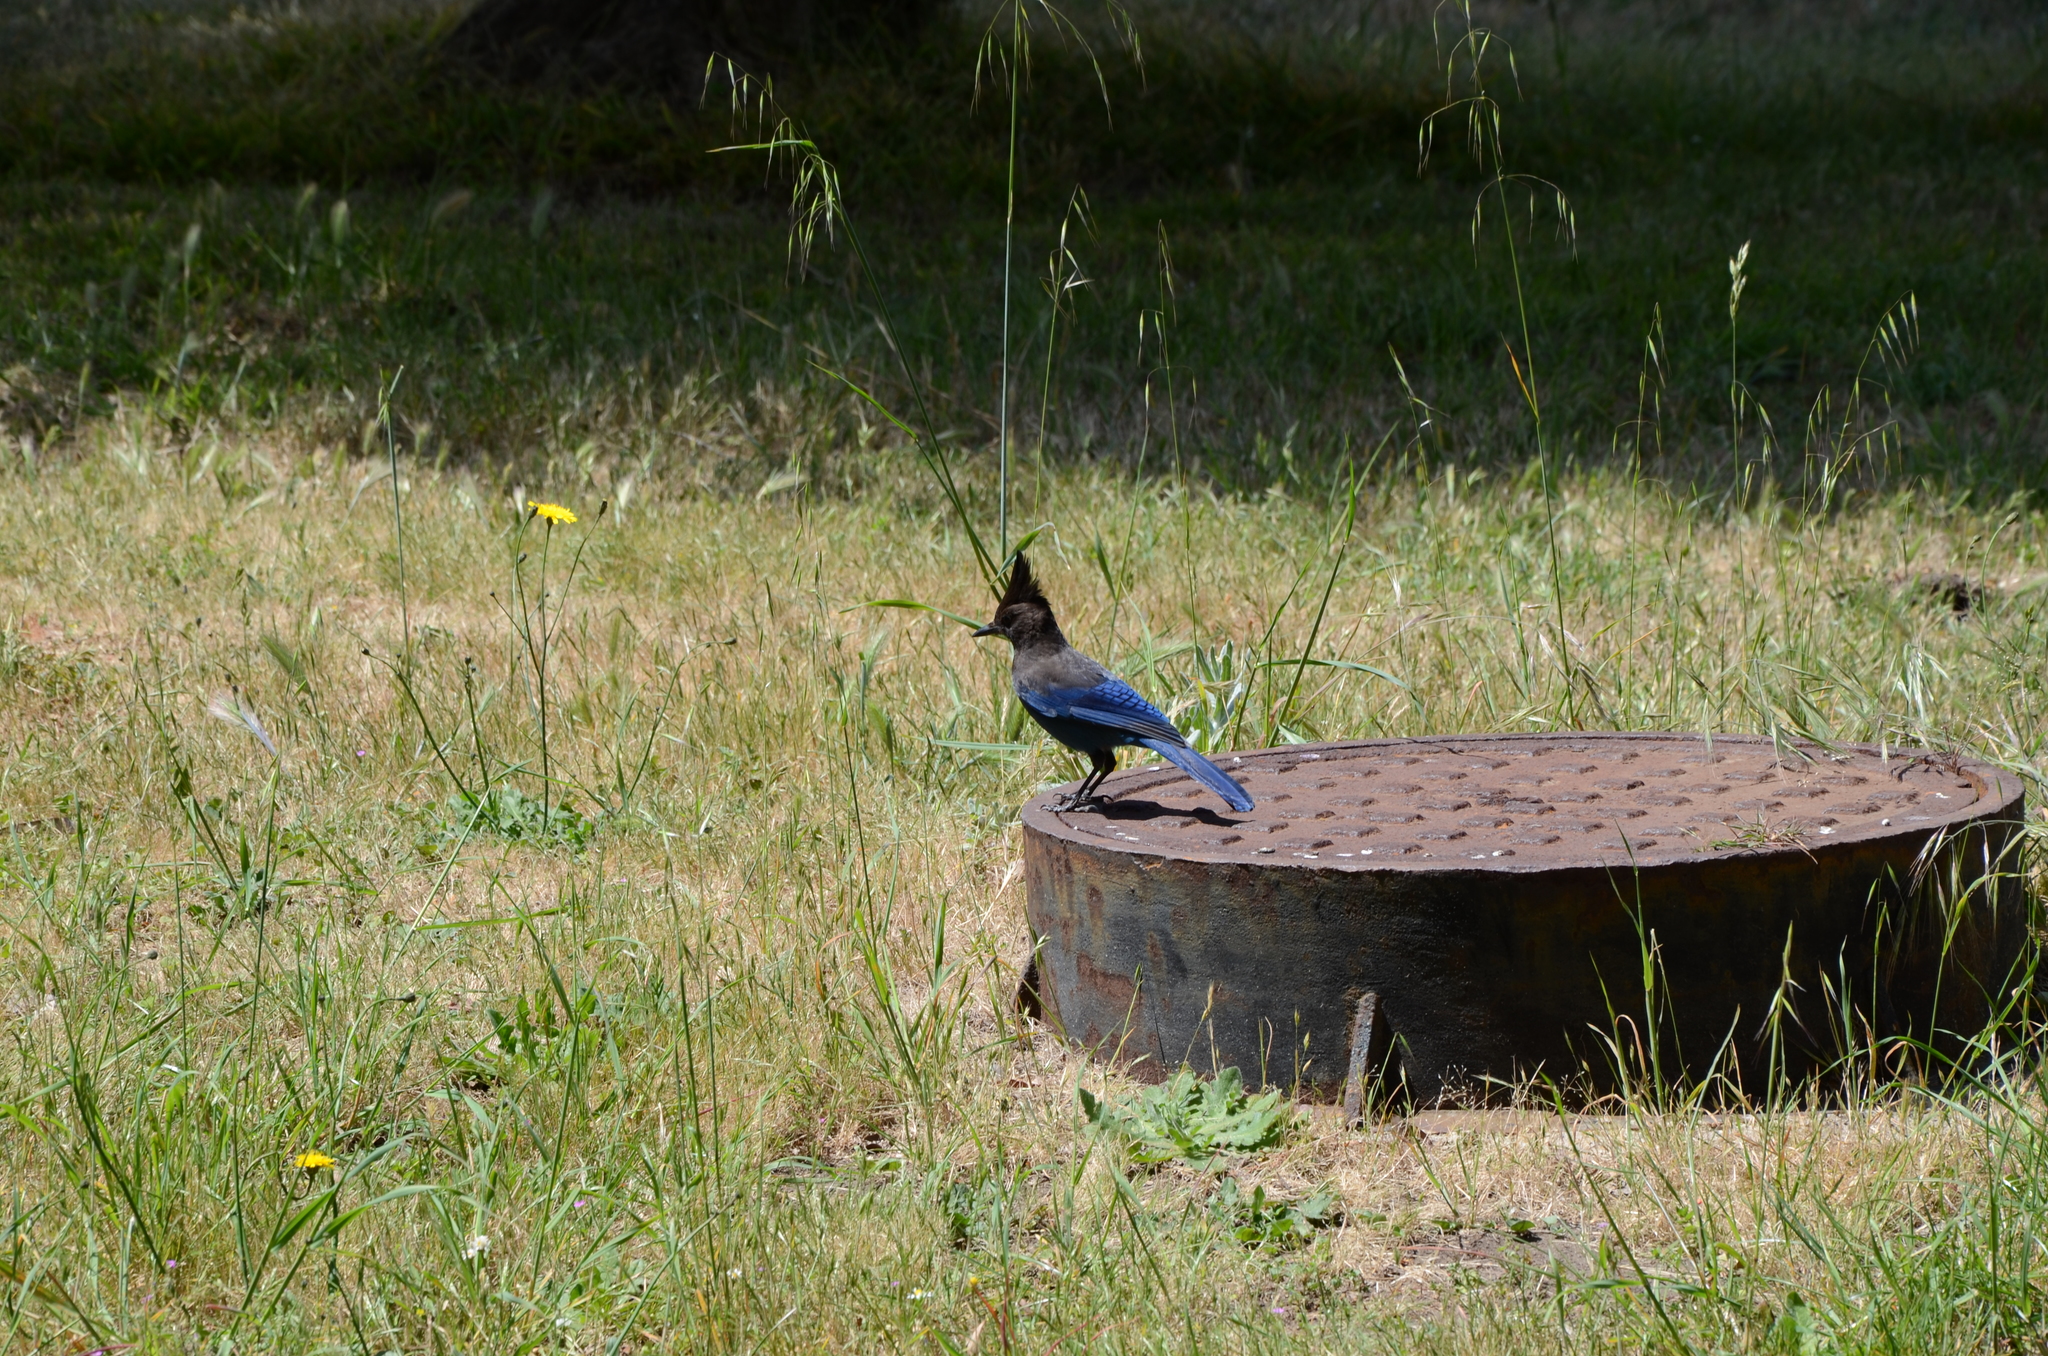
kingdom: Animalia
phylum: Chordata
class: Aves
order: Passeriformes
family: Corvidae
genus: Cyanocitta
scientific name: Cyanocitta stelleri
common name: Steller's jay
